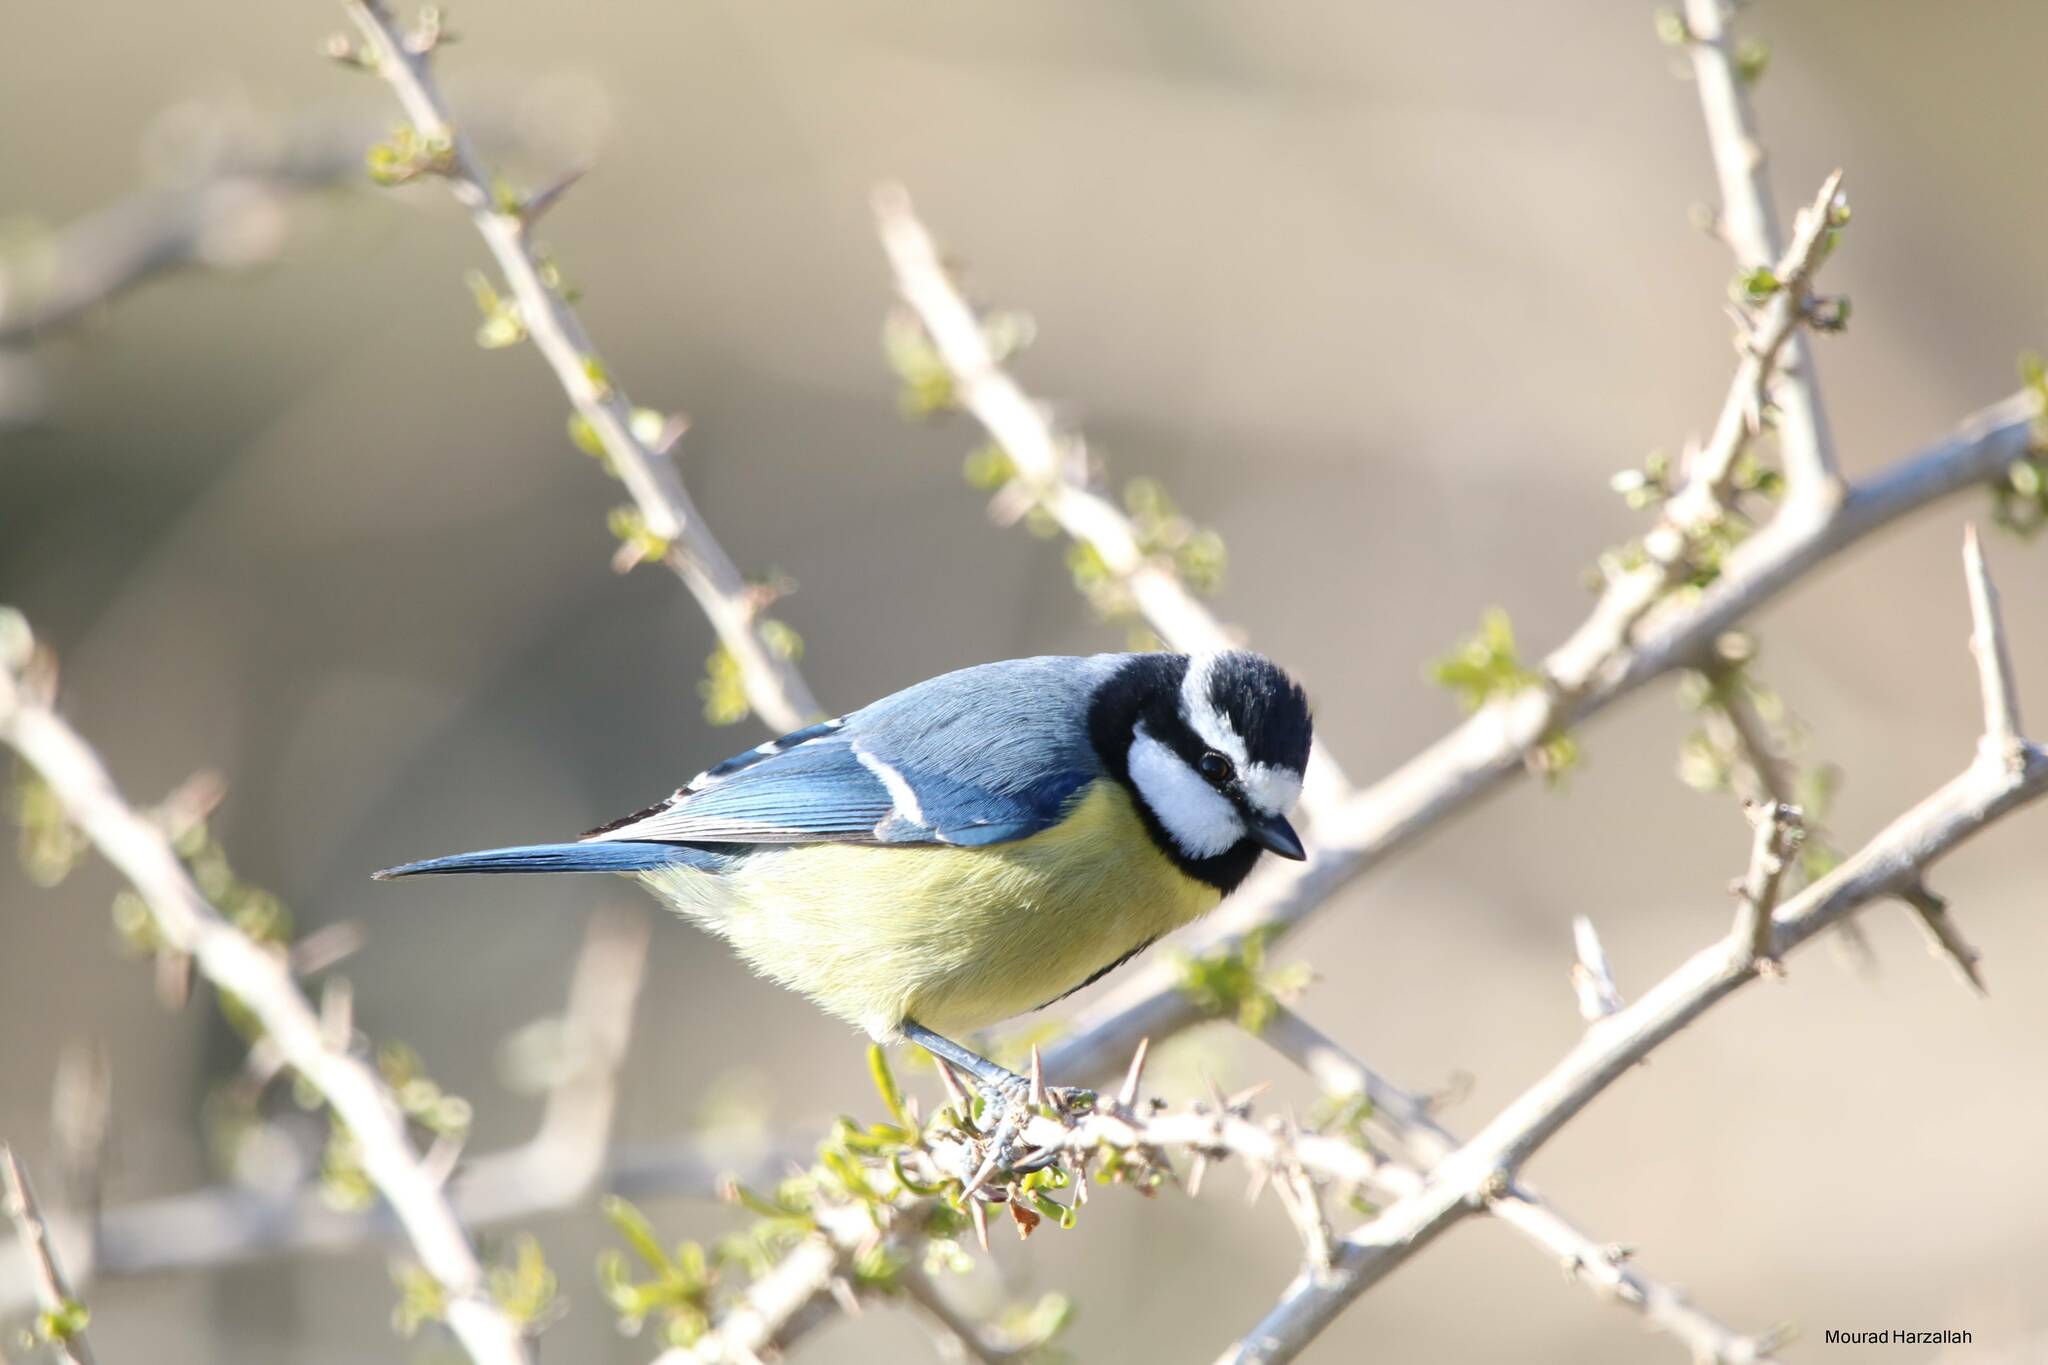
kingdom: Animalia
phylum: Chordata
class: Aves
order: Passeriformes
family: Paridae
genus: Cyanistes
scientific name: Cyanistes teneriffae
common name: African blue tit
